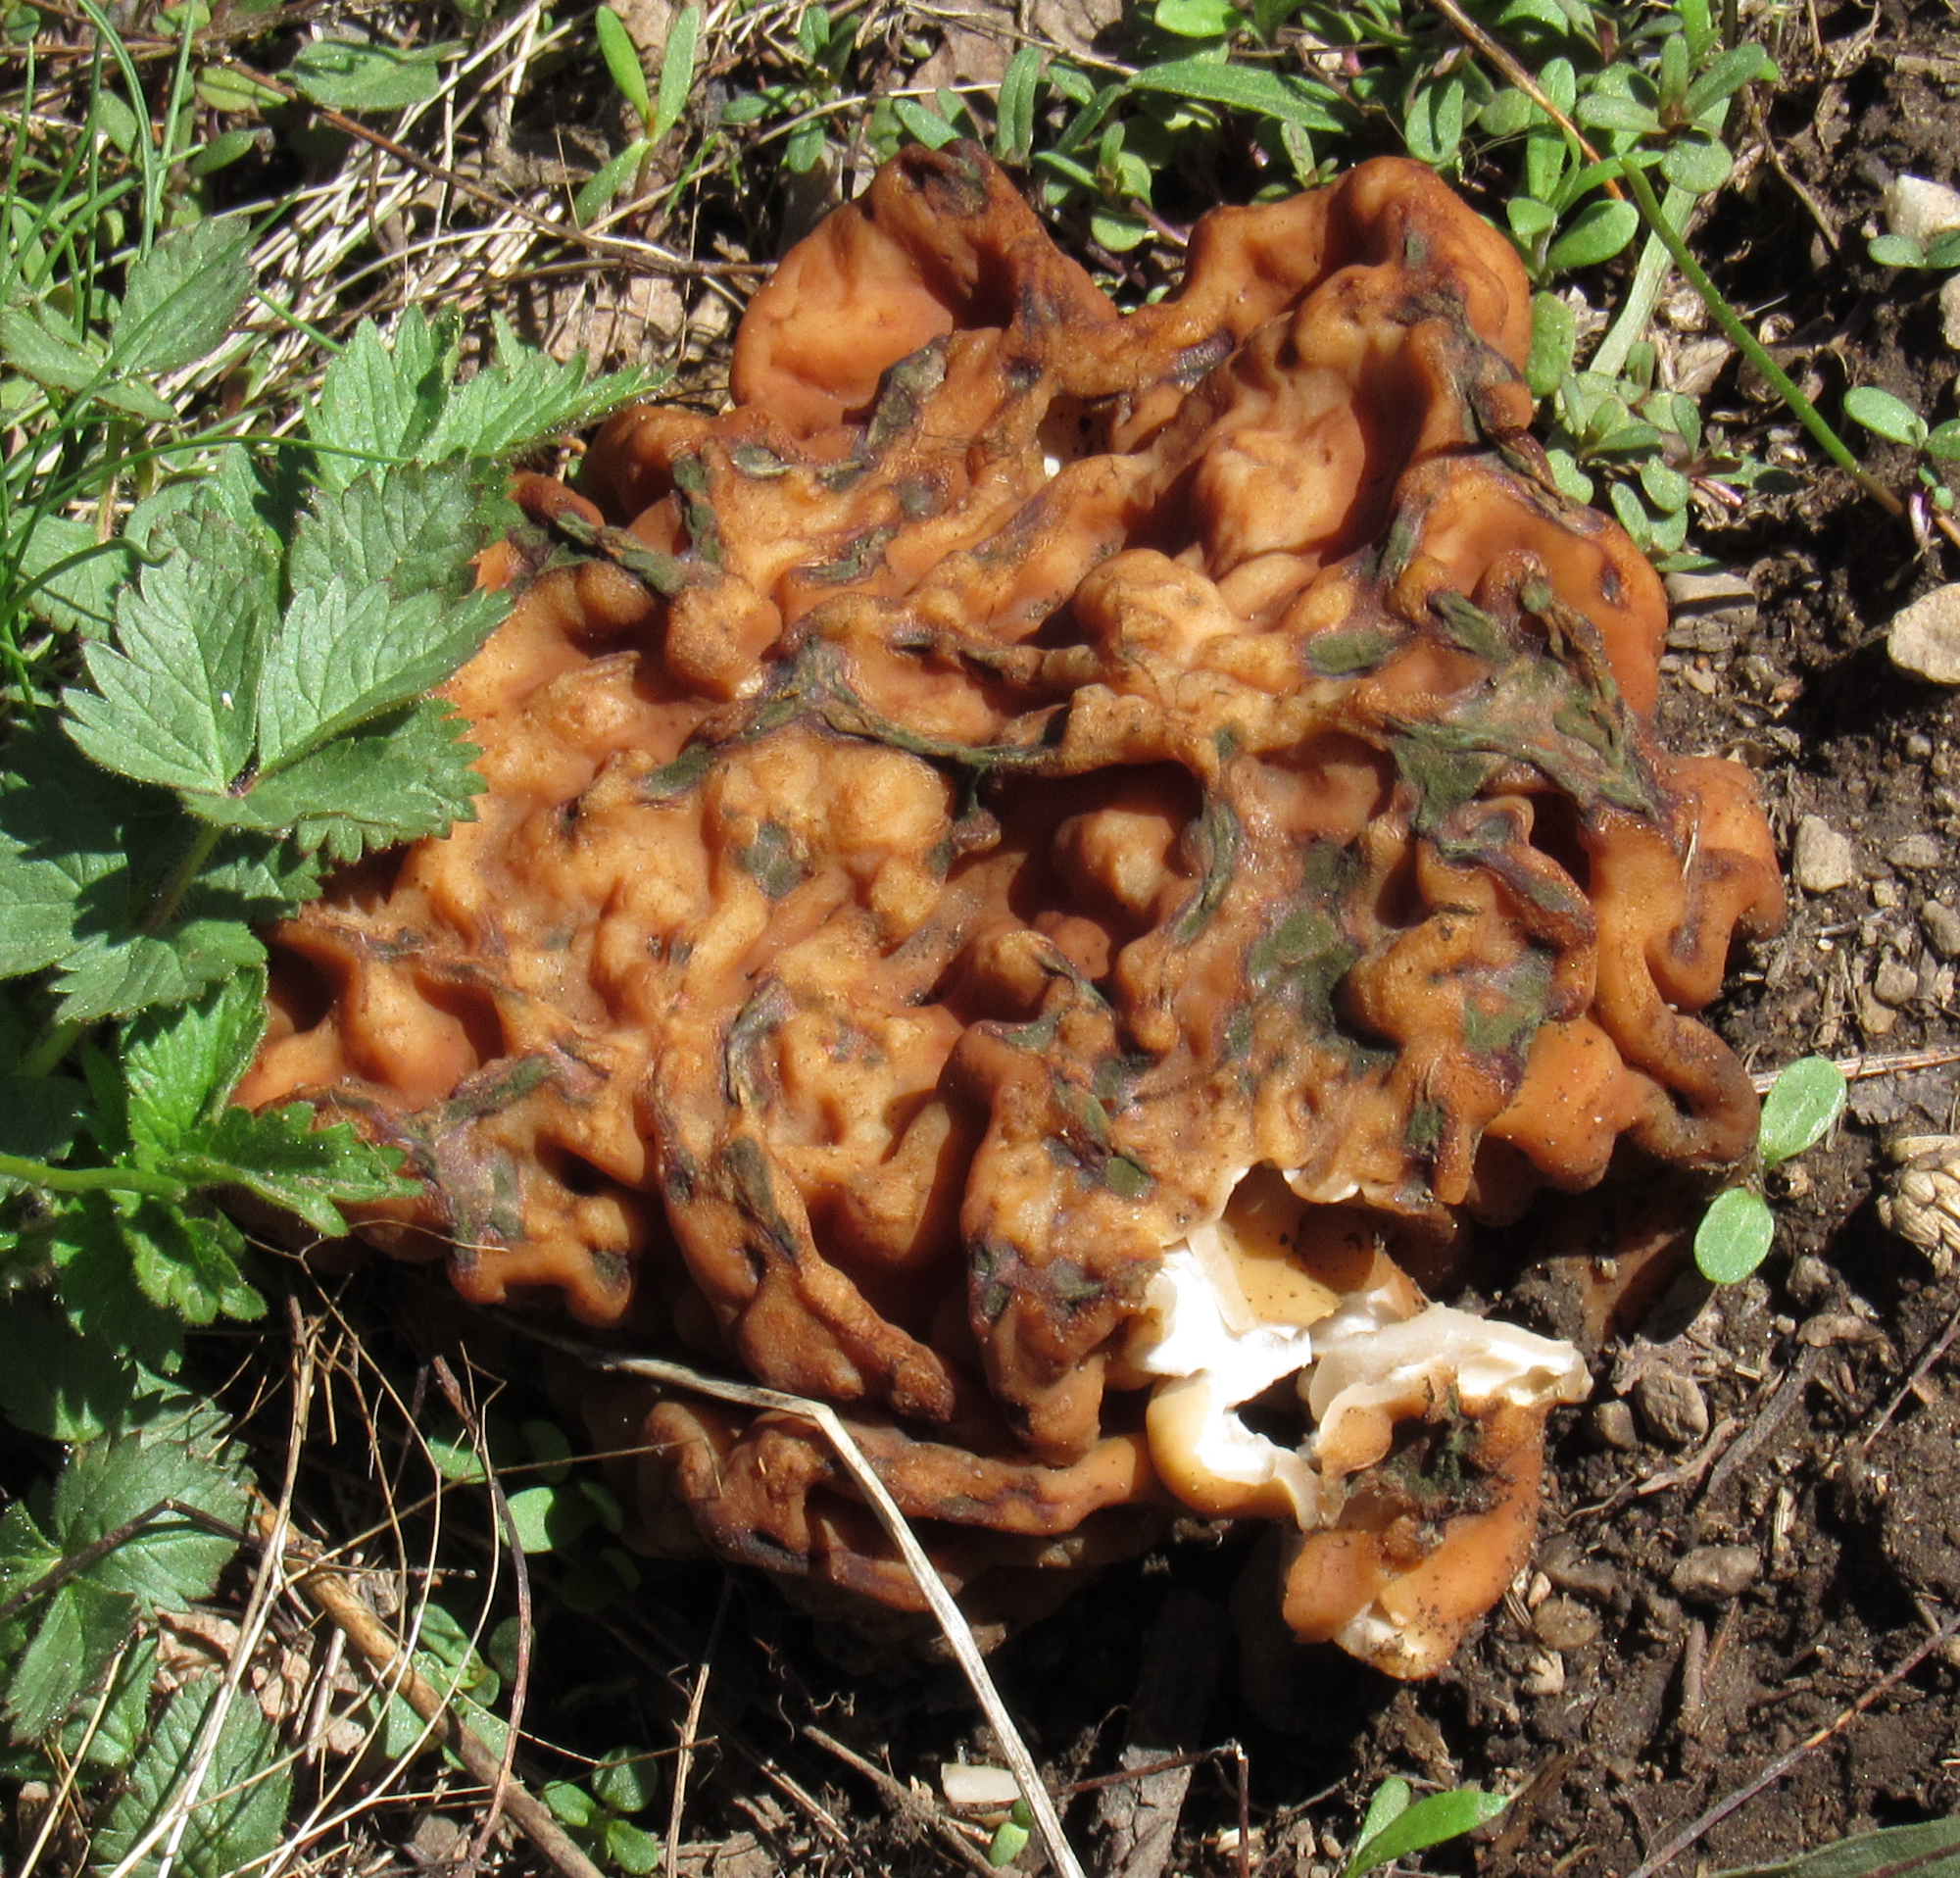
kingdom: Fungi
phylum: Ascomycota
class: Pezizomycetes
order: Pezizales
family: Discinaceae
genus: Discina
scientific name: Discina montana
